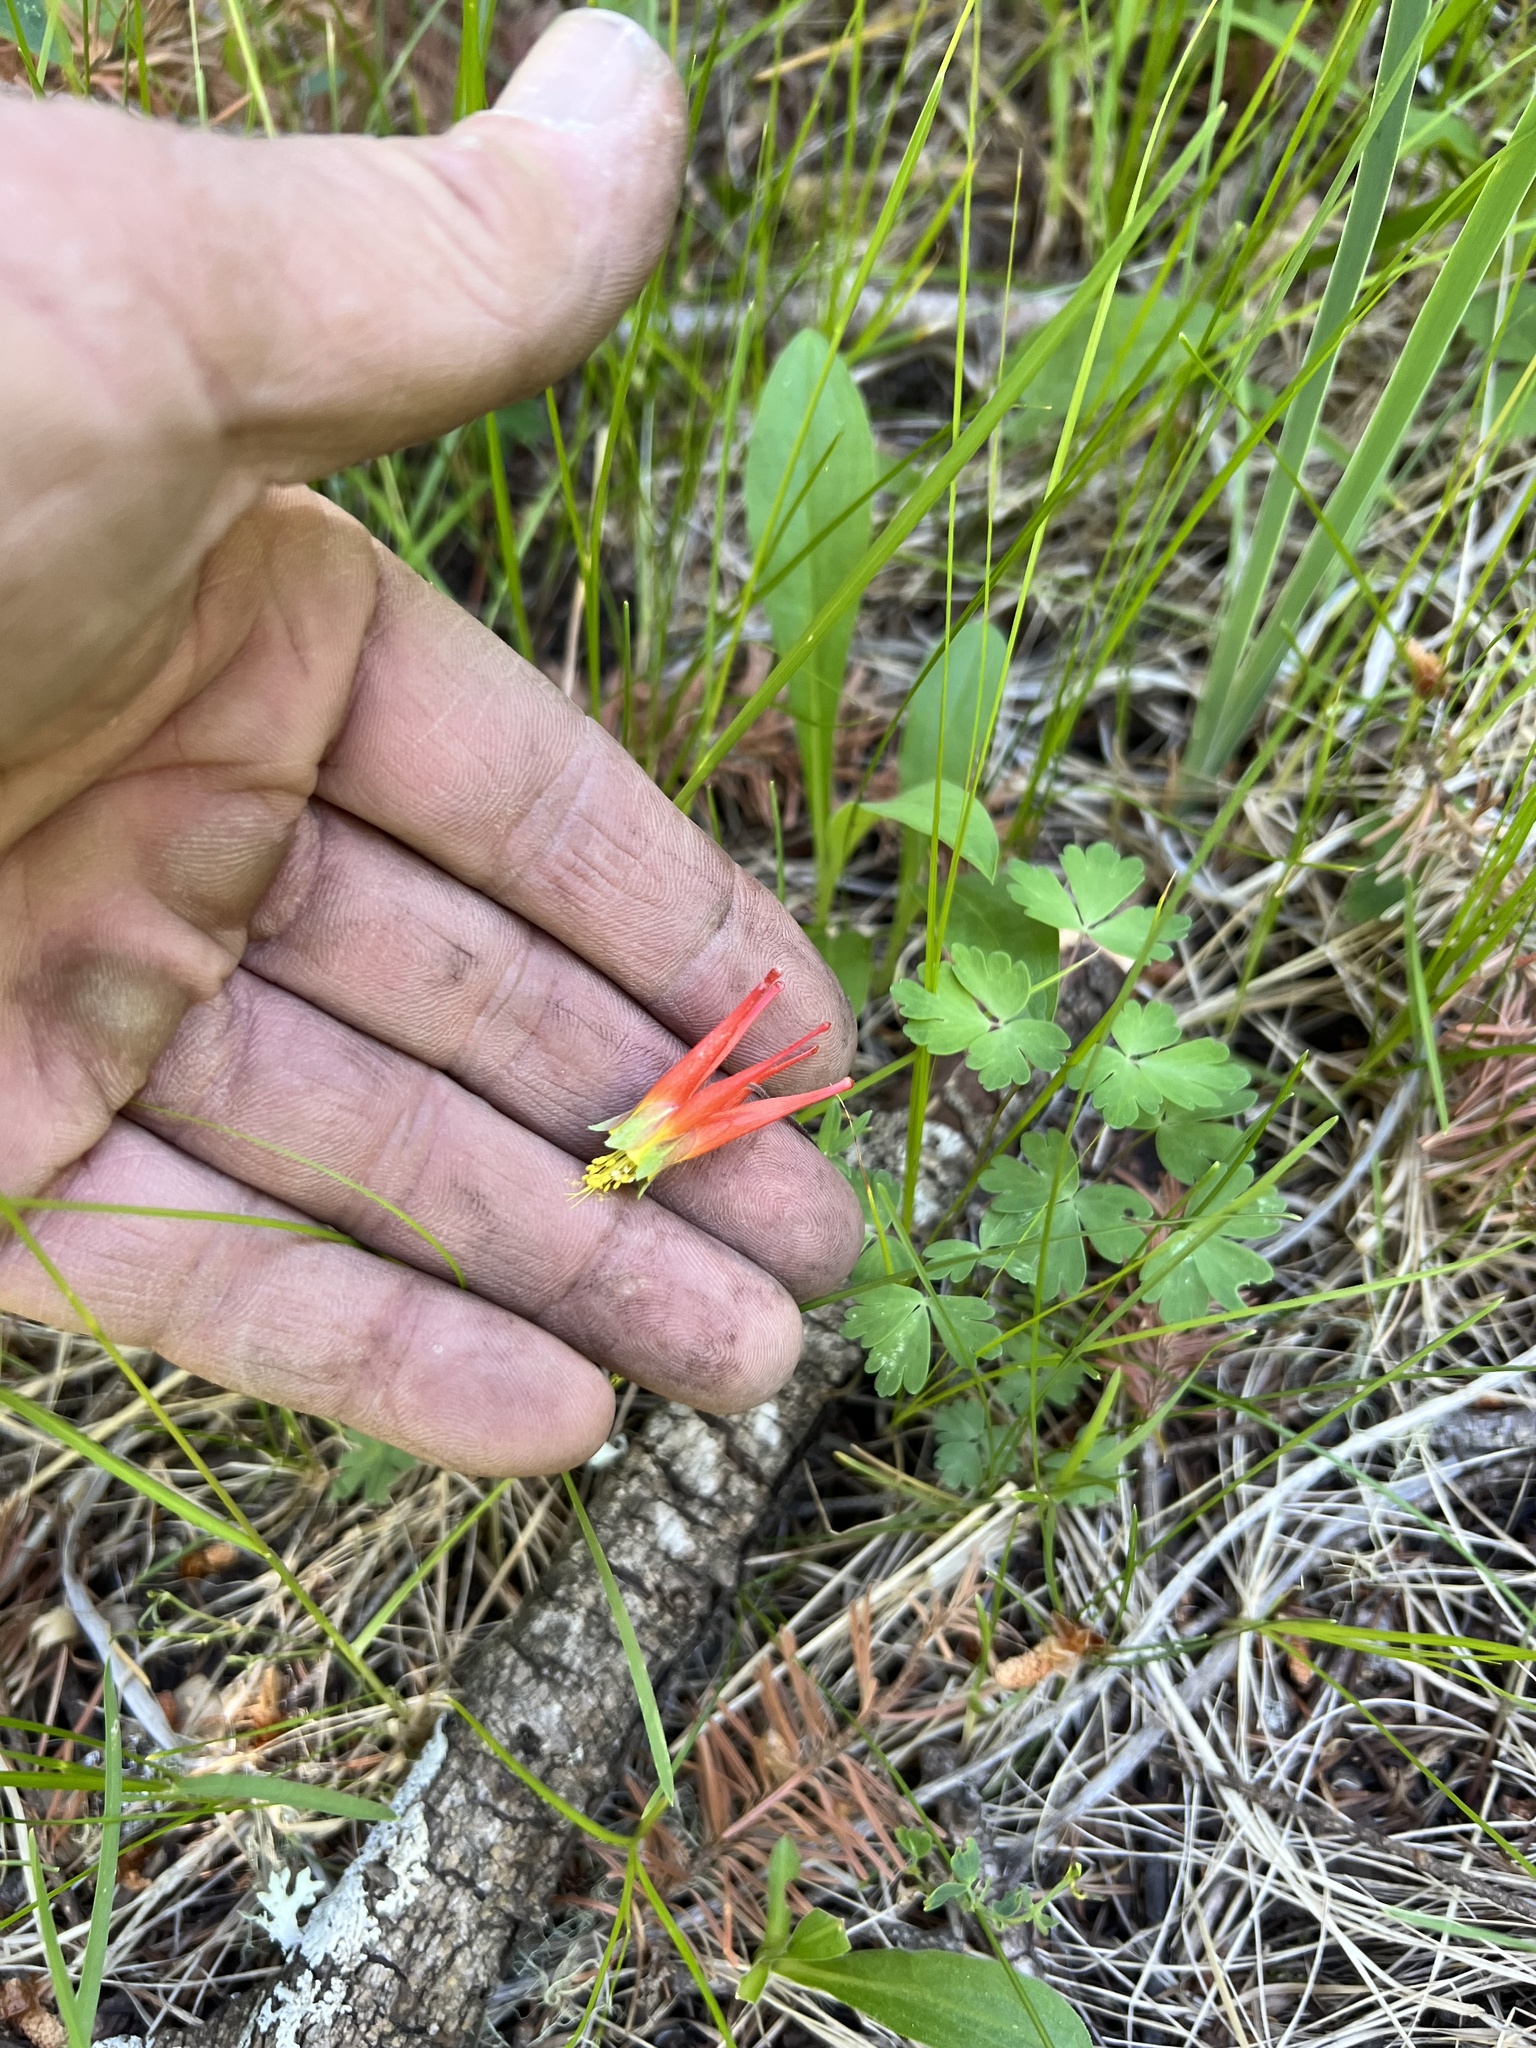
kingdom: Plantae
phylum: Tracheophyta
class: Magnoliopsida
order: Ranunculales
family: Ranunculaceae
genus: Aquilegia
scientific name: Aquilegia elegantula
